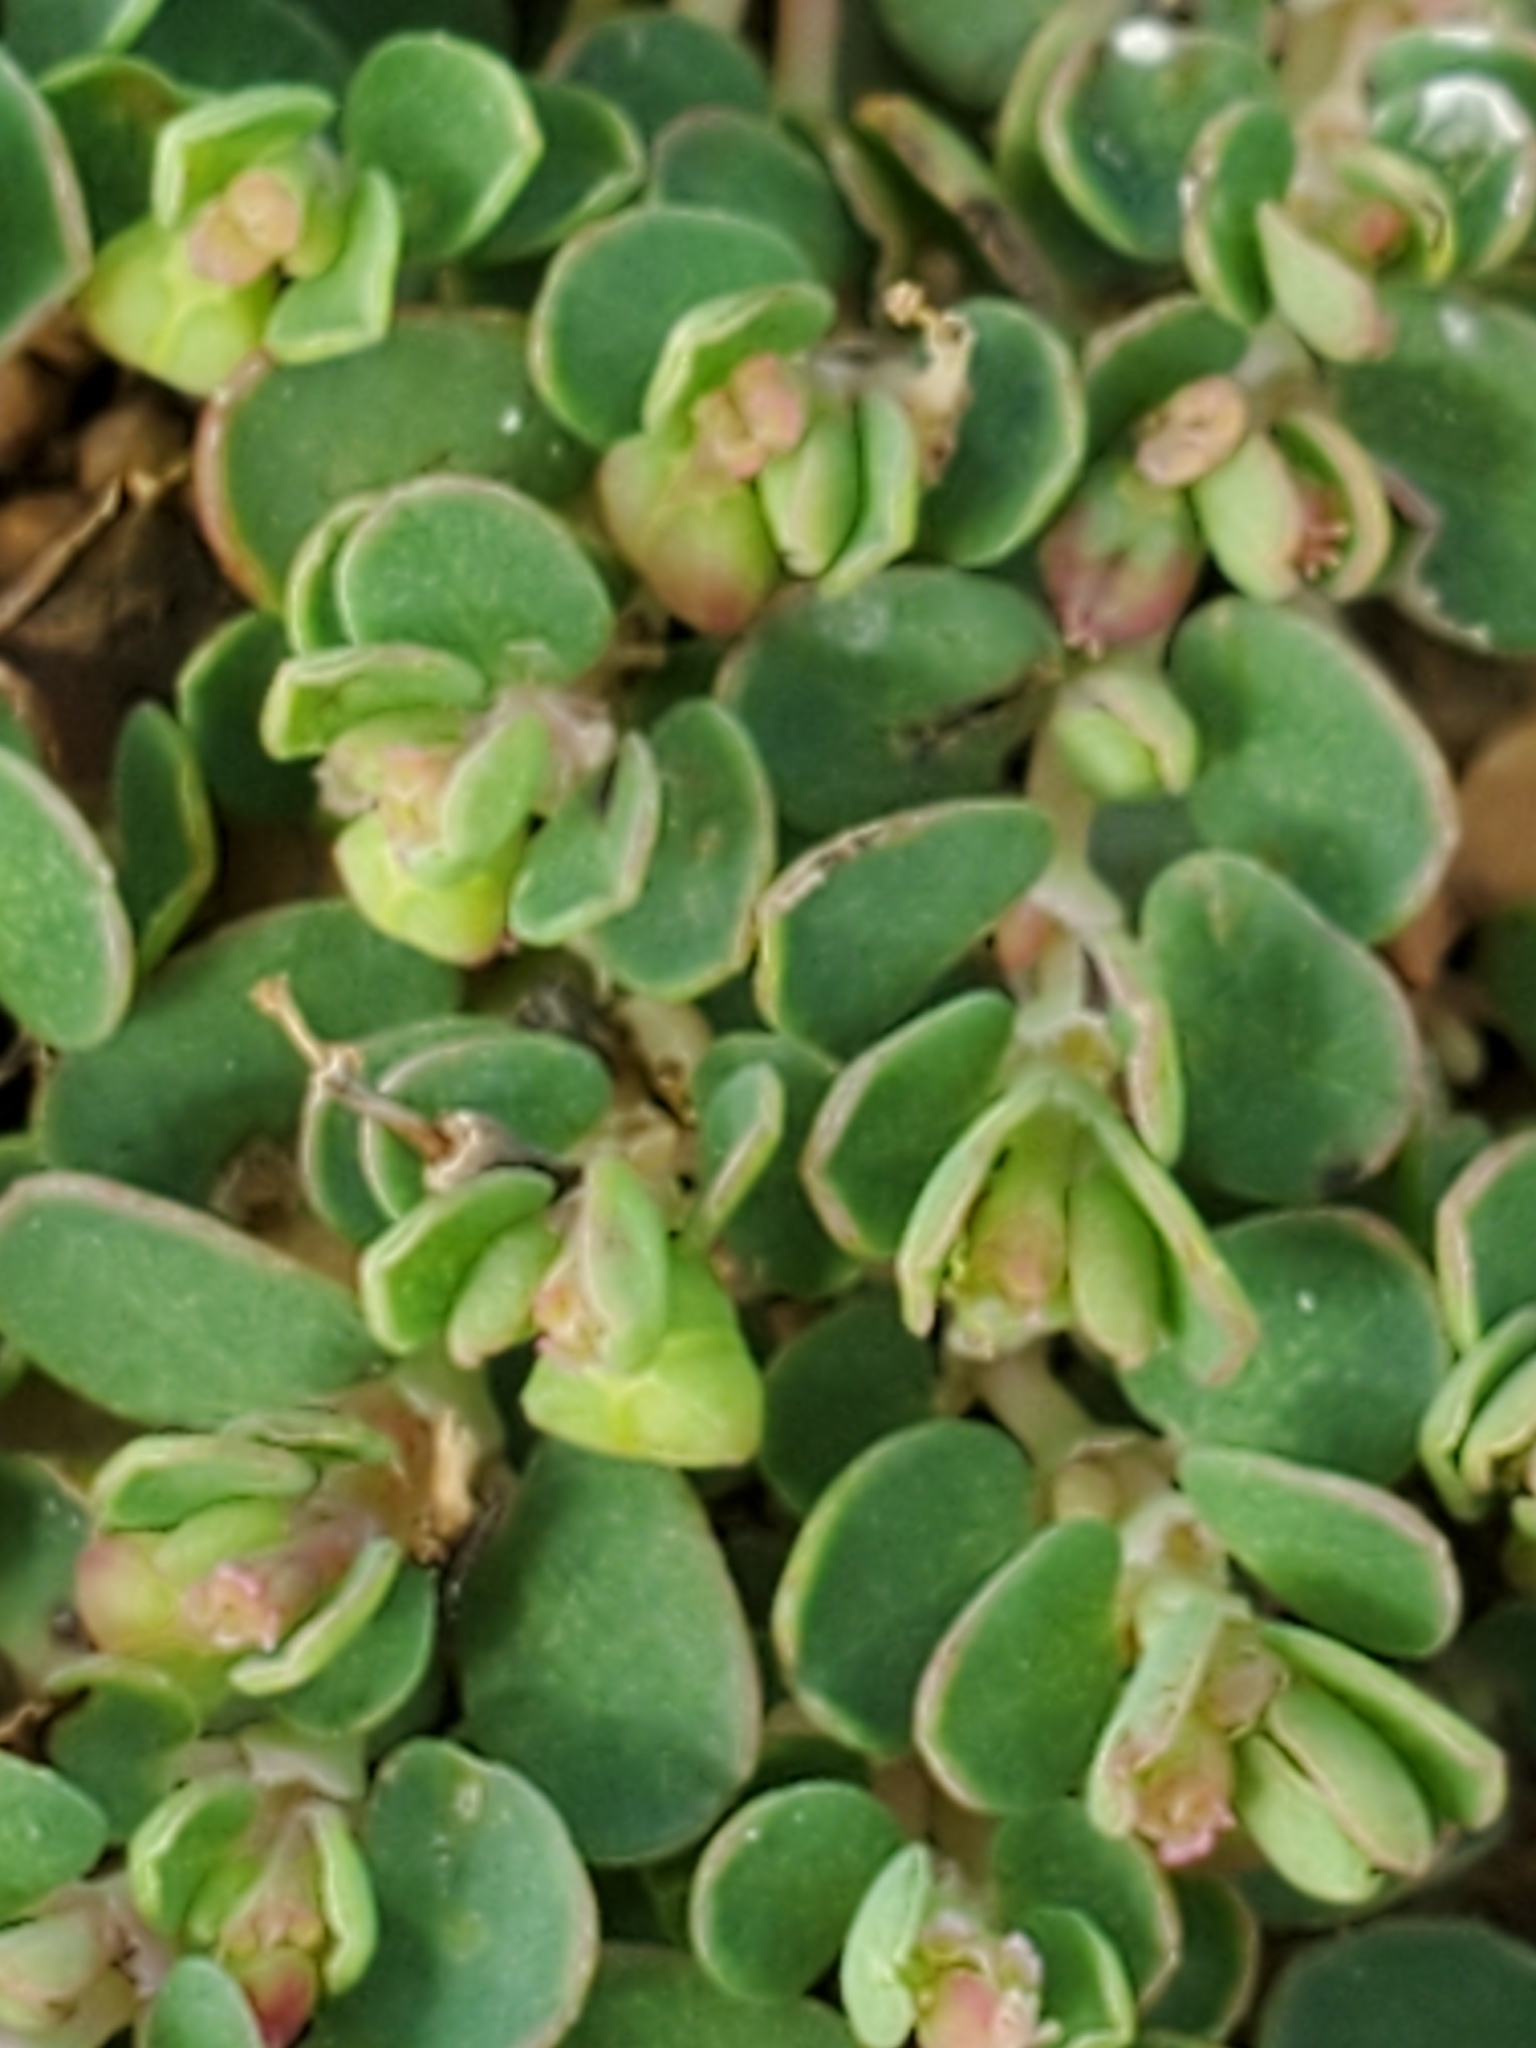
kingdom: Plantae
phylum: Tracheophyta
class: Magnoliopsida
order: Malpighiales
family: Euphorbiaceae
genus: Euphorbia
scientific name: Euphorbia serpens
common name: Matted sandmat
